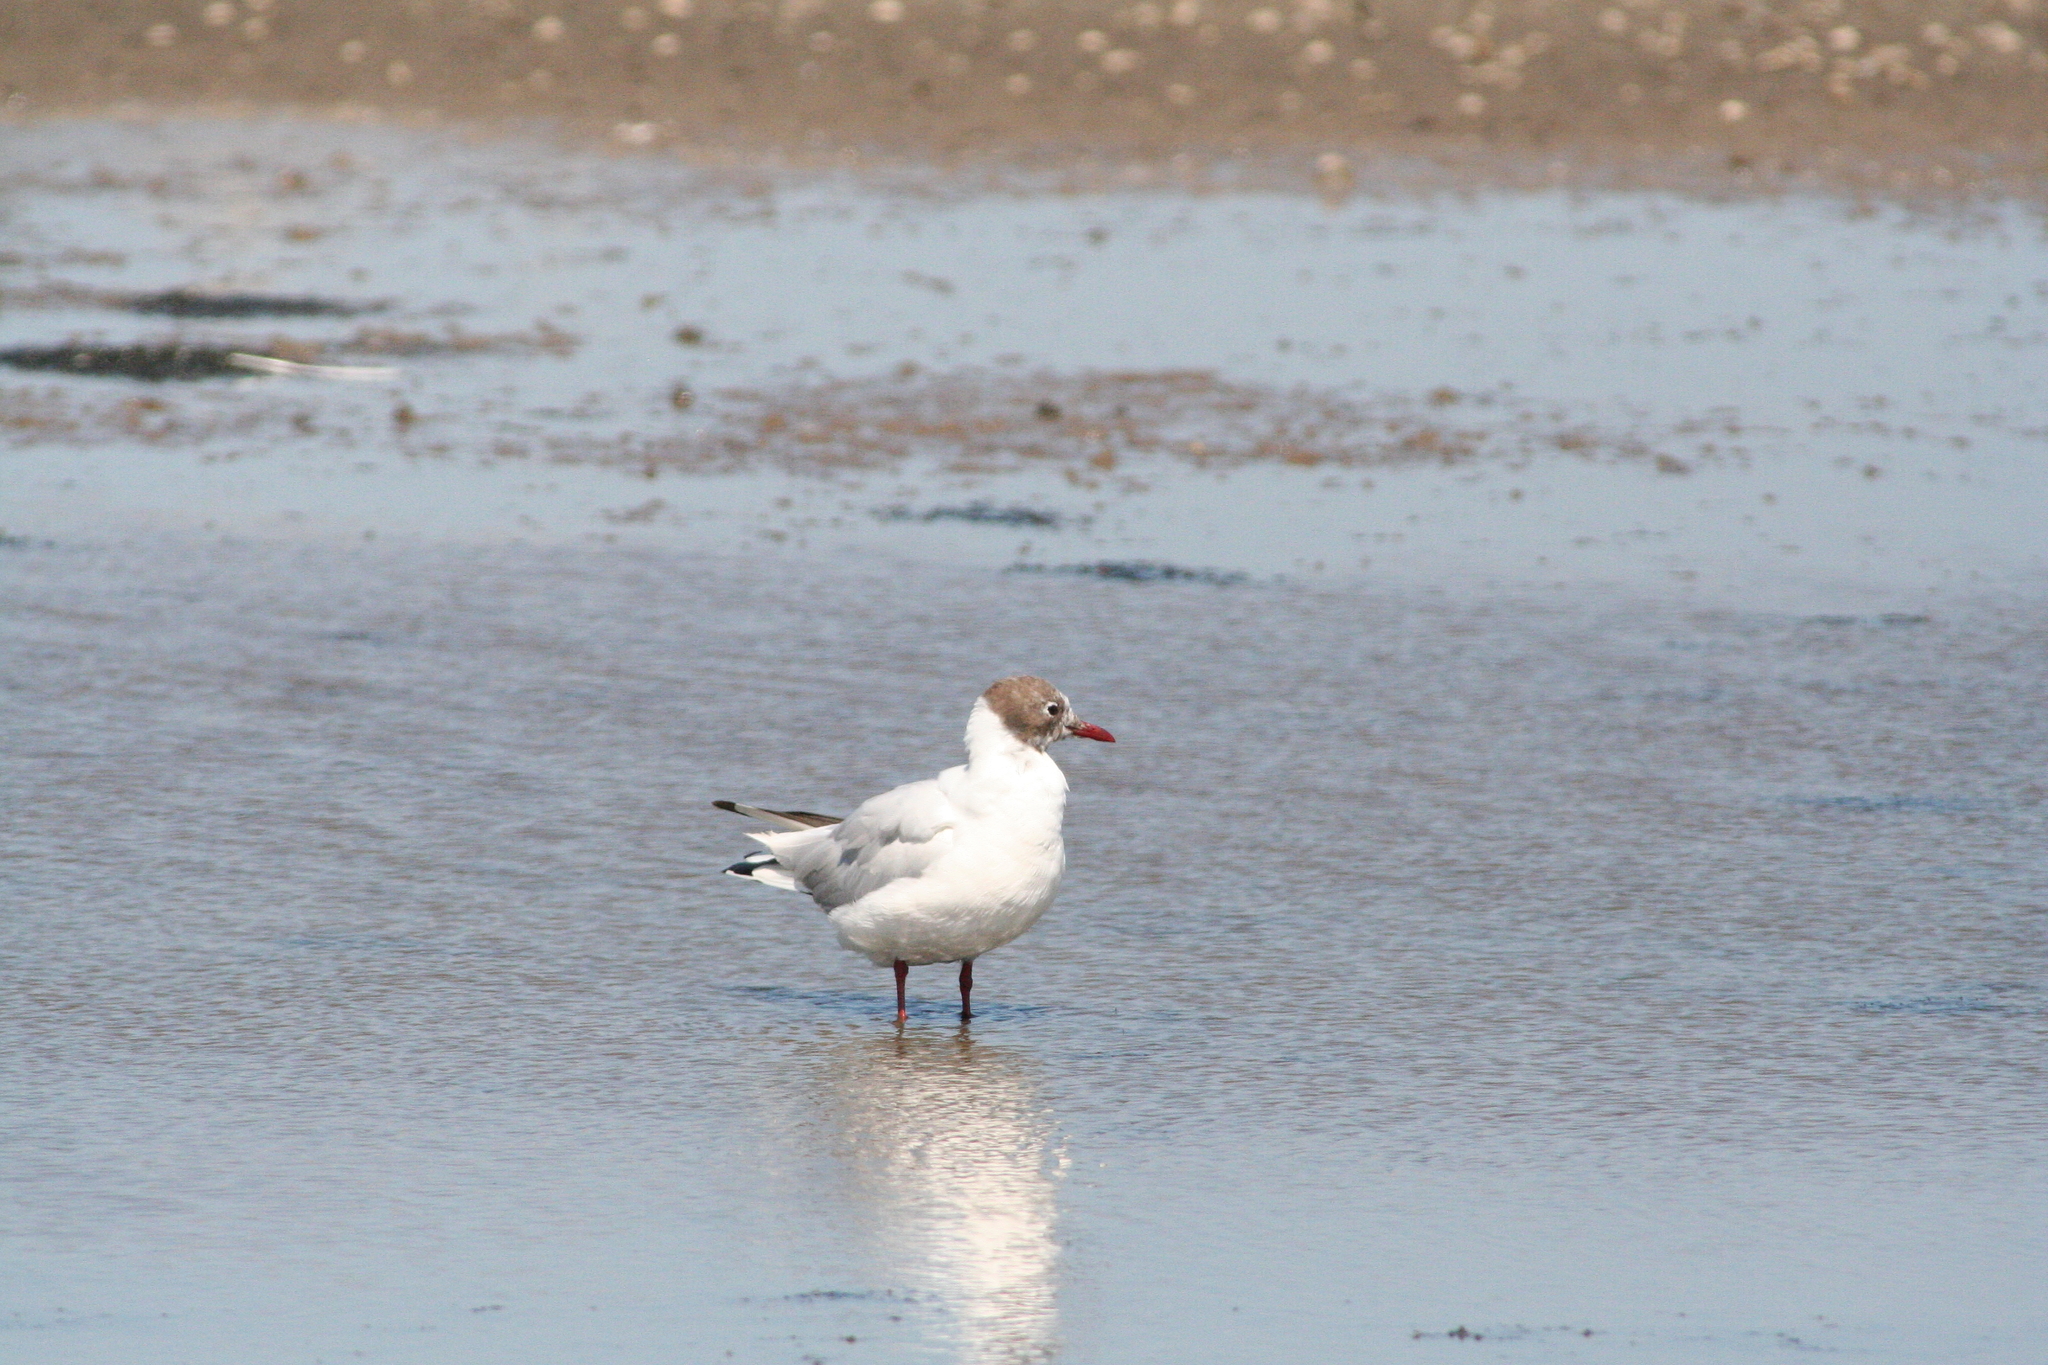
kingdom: Animalia
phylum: Chordata
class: Aves
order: Charadriiformes
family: Laridae
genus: Chroicocephalus
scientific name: Chroicocephalus ridibundus
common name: Black-headed gull
